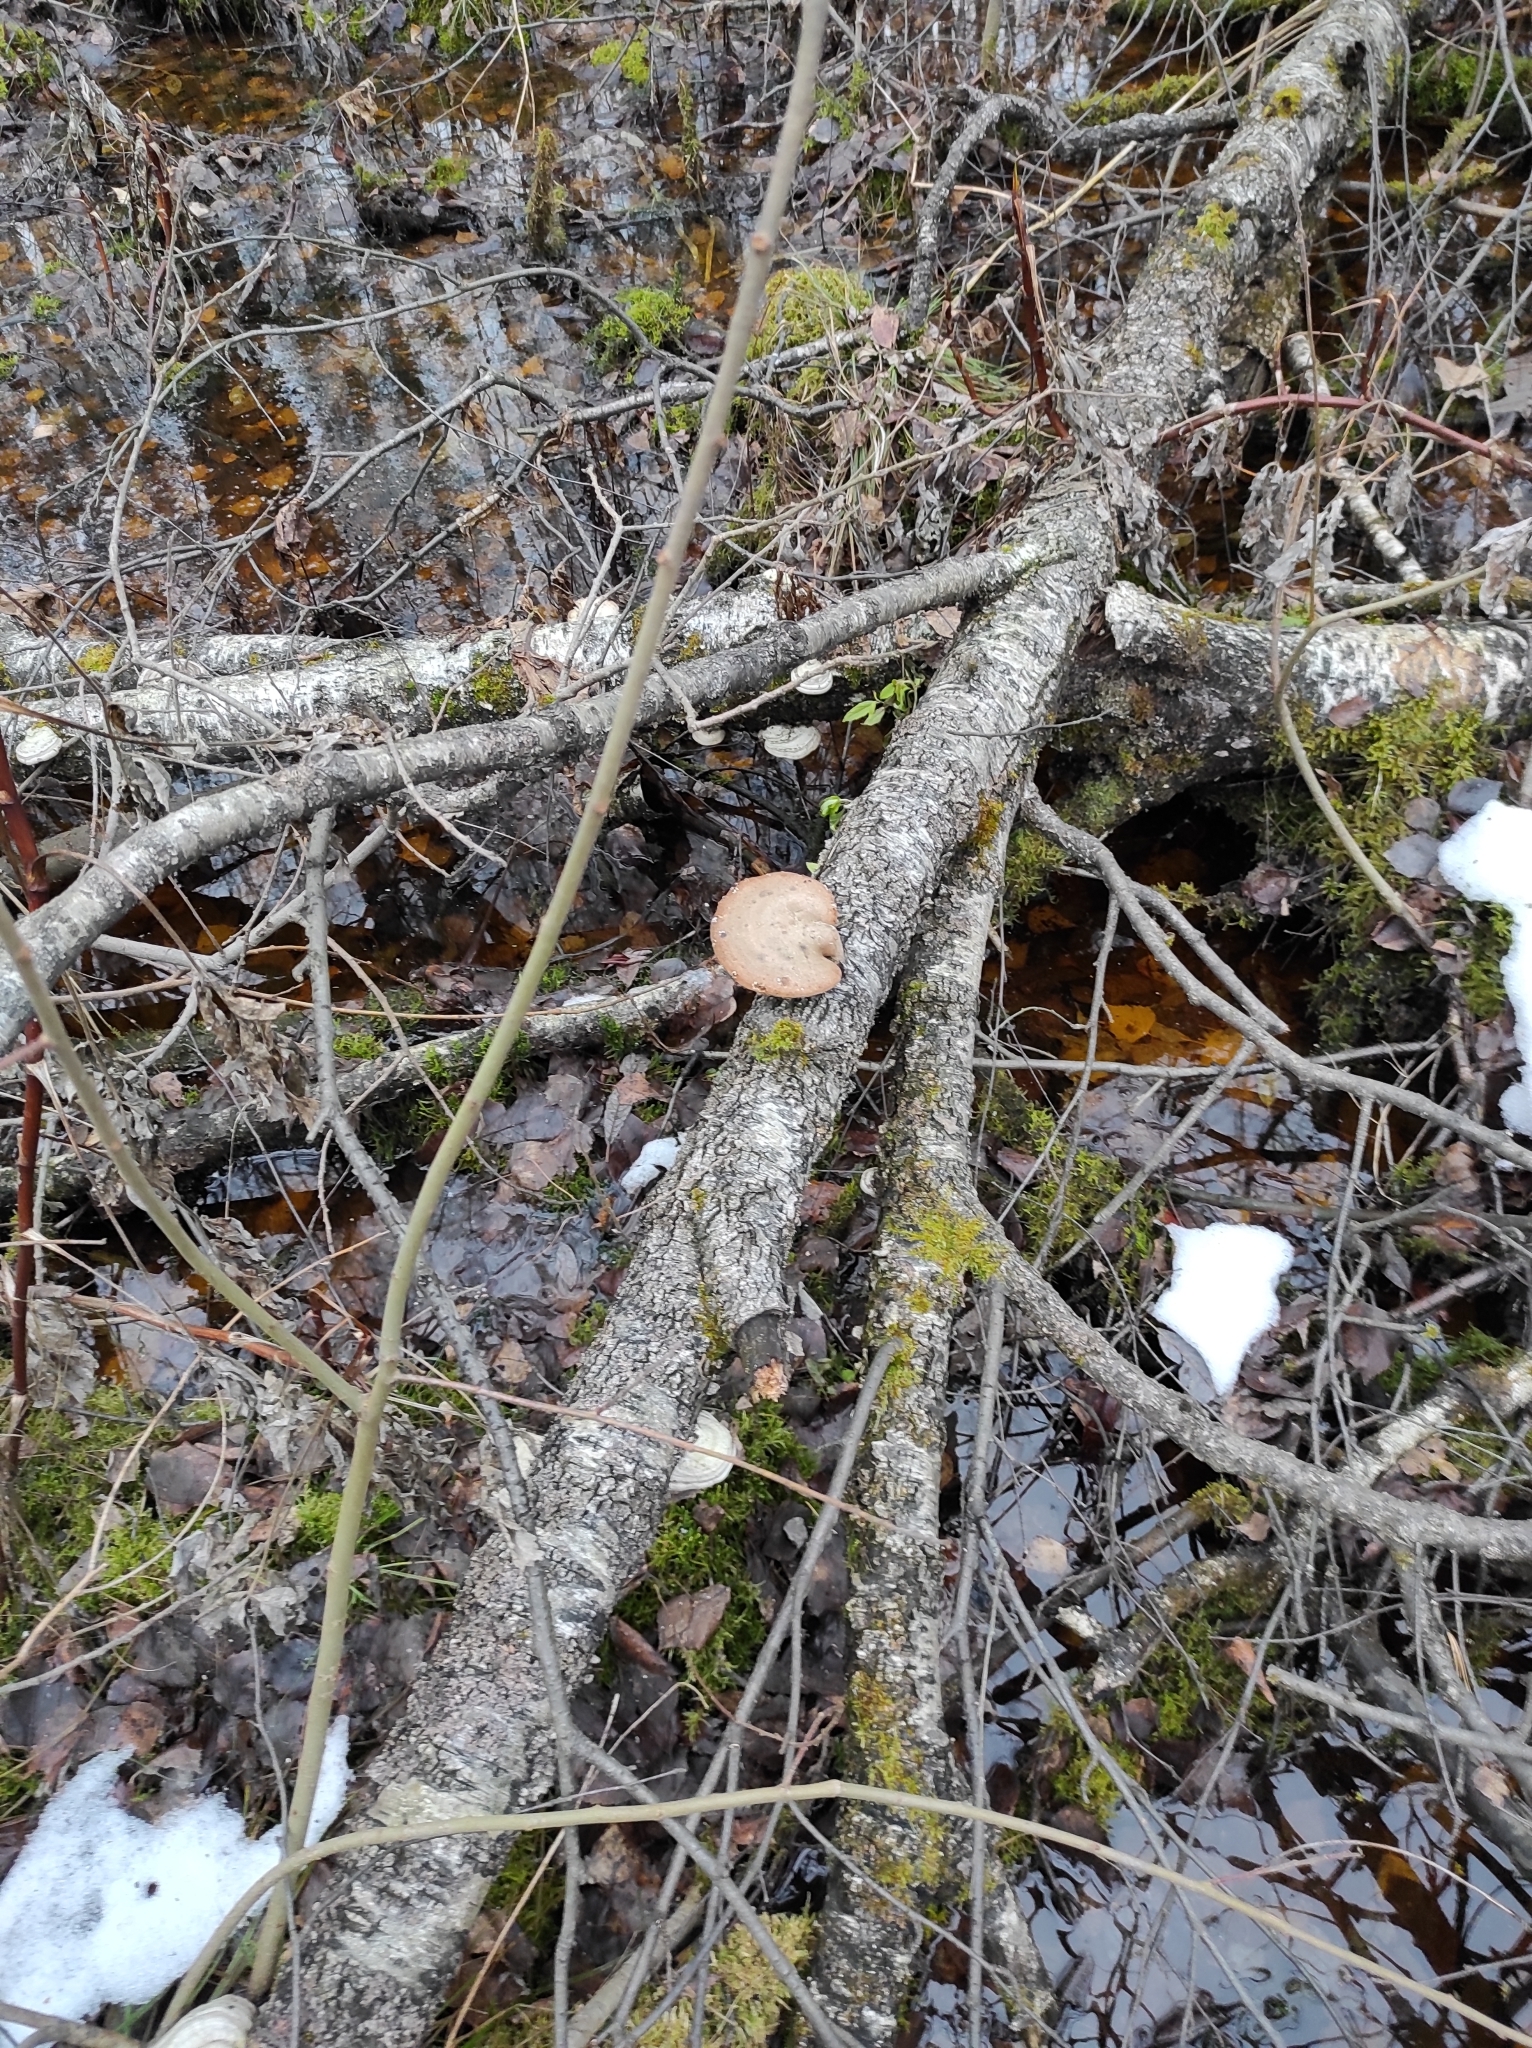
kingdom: Fungi
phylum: Basidiomycota
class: Agaricomycetes
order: Polyporales
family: Fomitopsidaceae
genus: Fomitopsis
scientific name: Fomitopsis betulina
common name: Birch polypore
